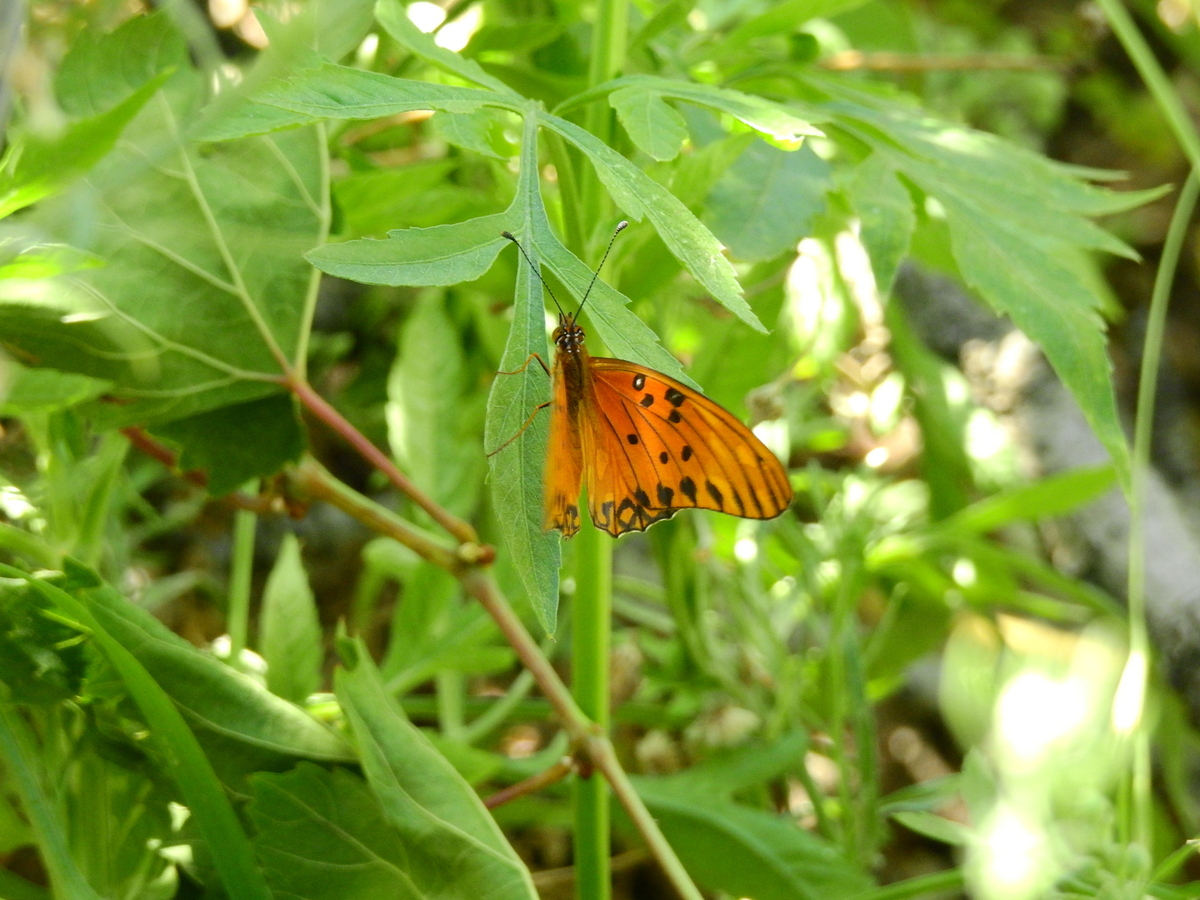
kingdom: Animalia
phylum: Arthropoda
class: Insecta
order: Lepidoptera
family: Nymphalidae
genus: Dione
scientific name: Dione vanillae
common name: Gulf fritillary
